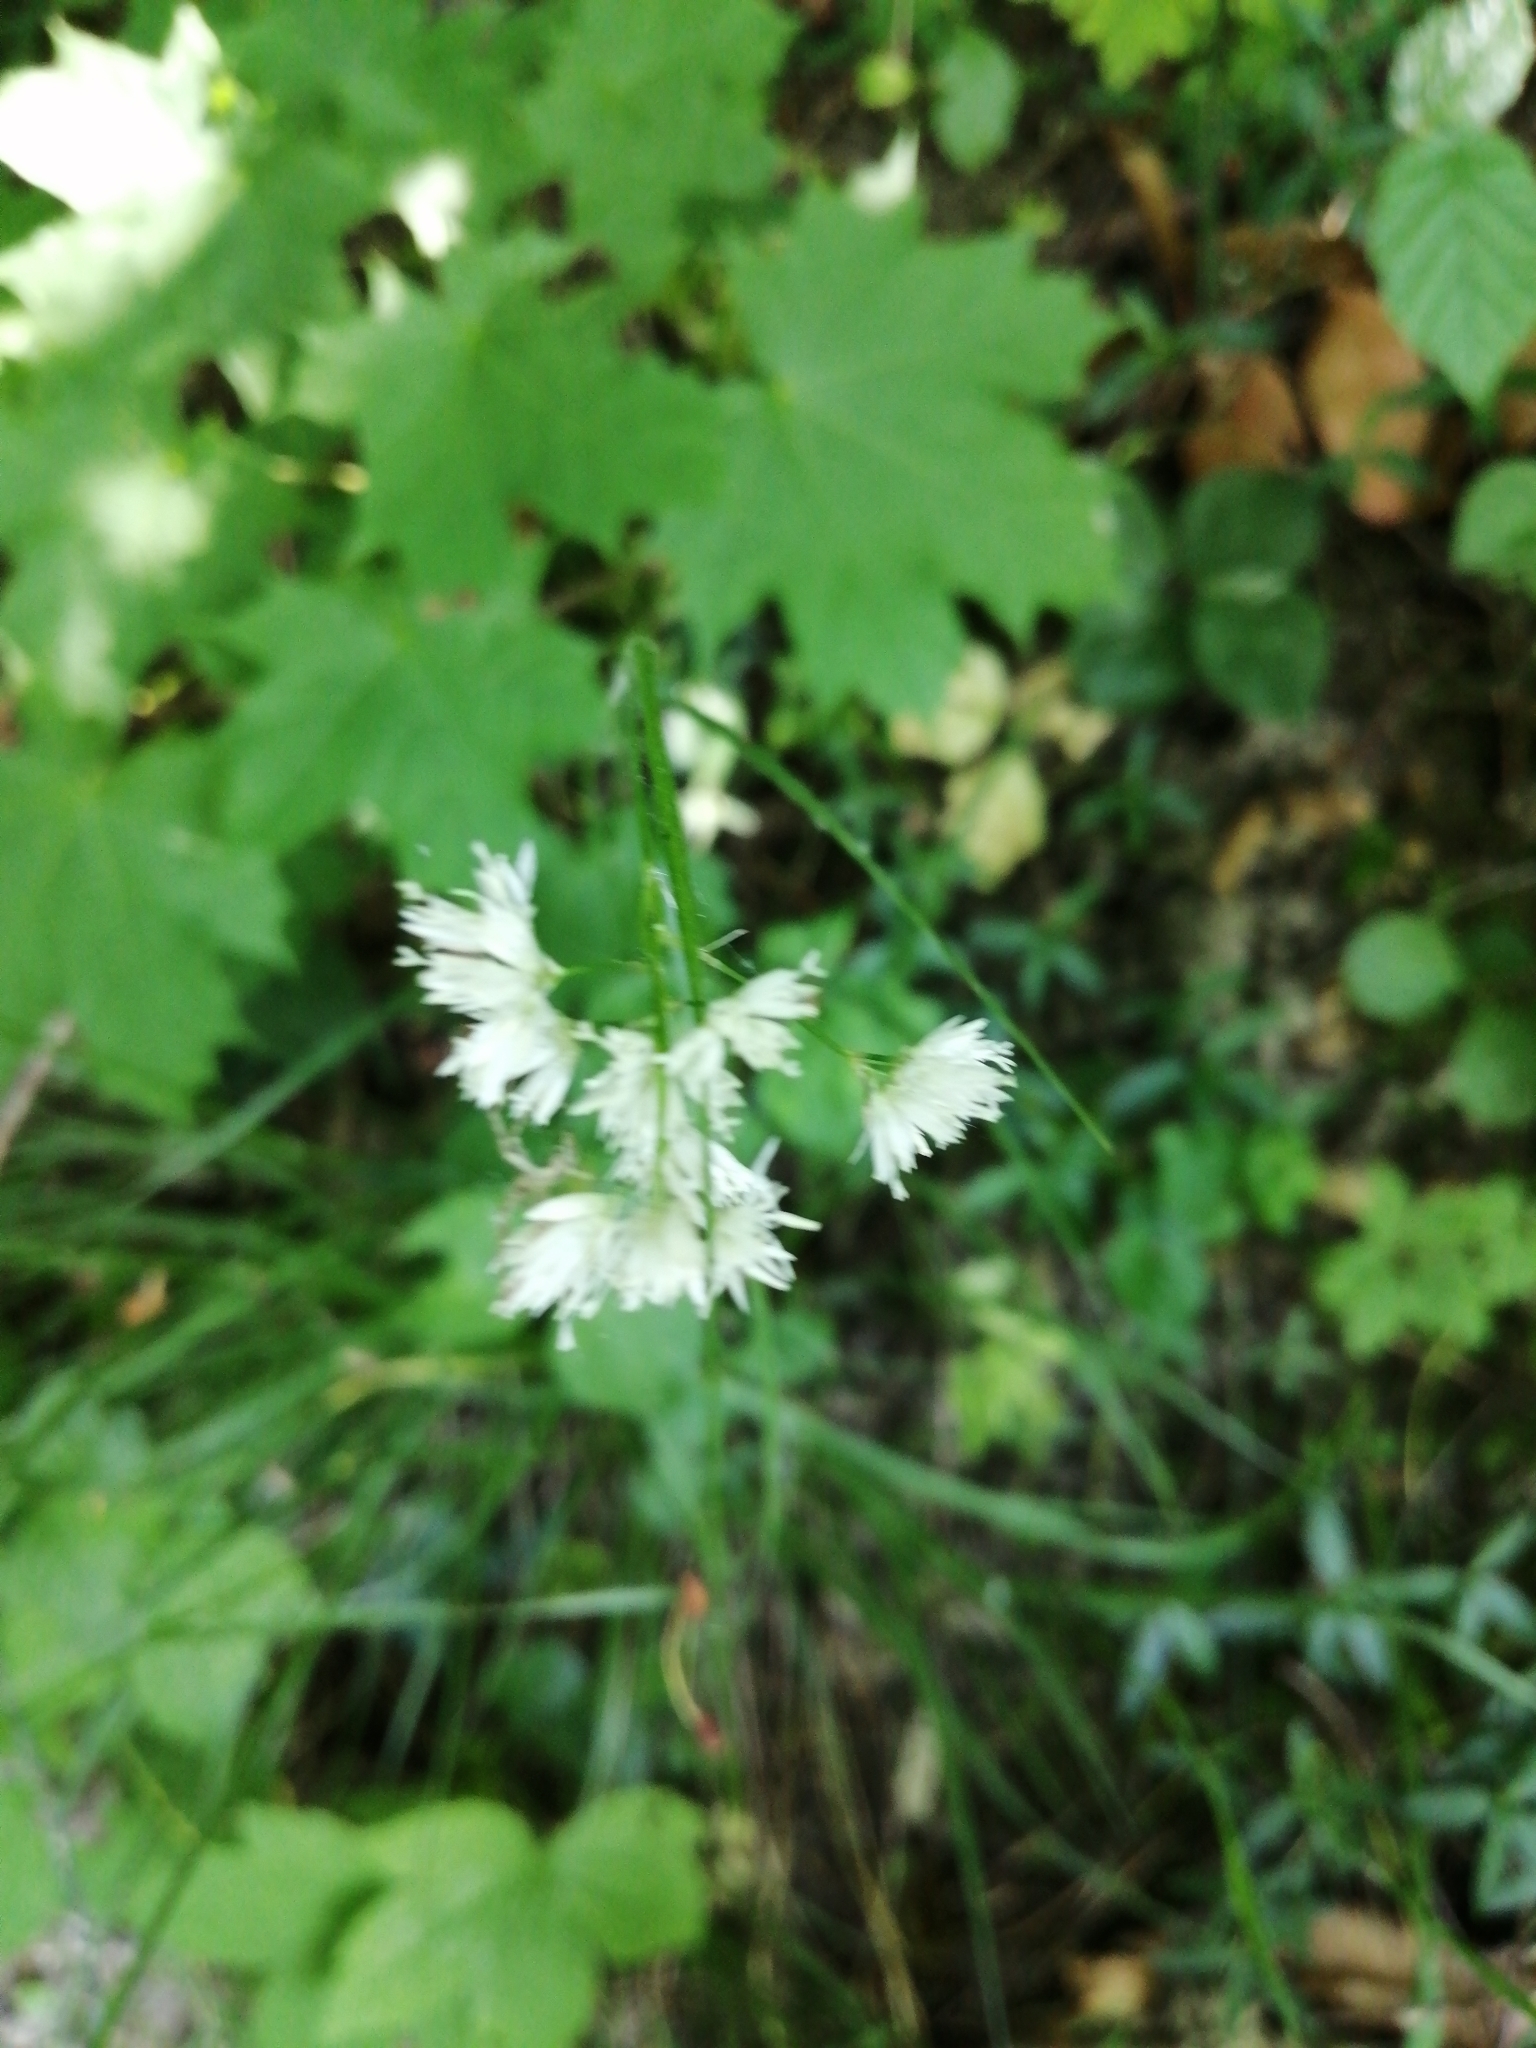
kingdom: Plantae
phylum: Tracheophyta
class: Liliopsida
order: Poales
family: Juncaceae
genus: Luzula
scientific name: Luzula nivea
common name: Snow-white wood-rush
